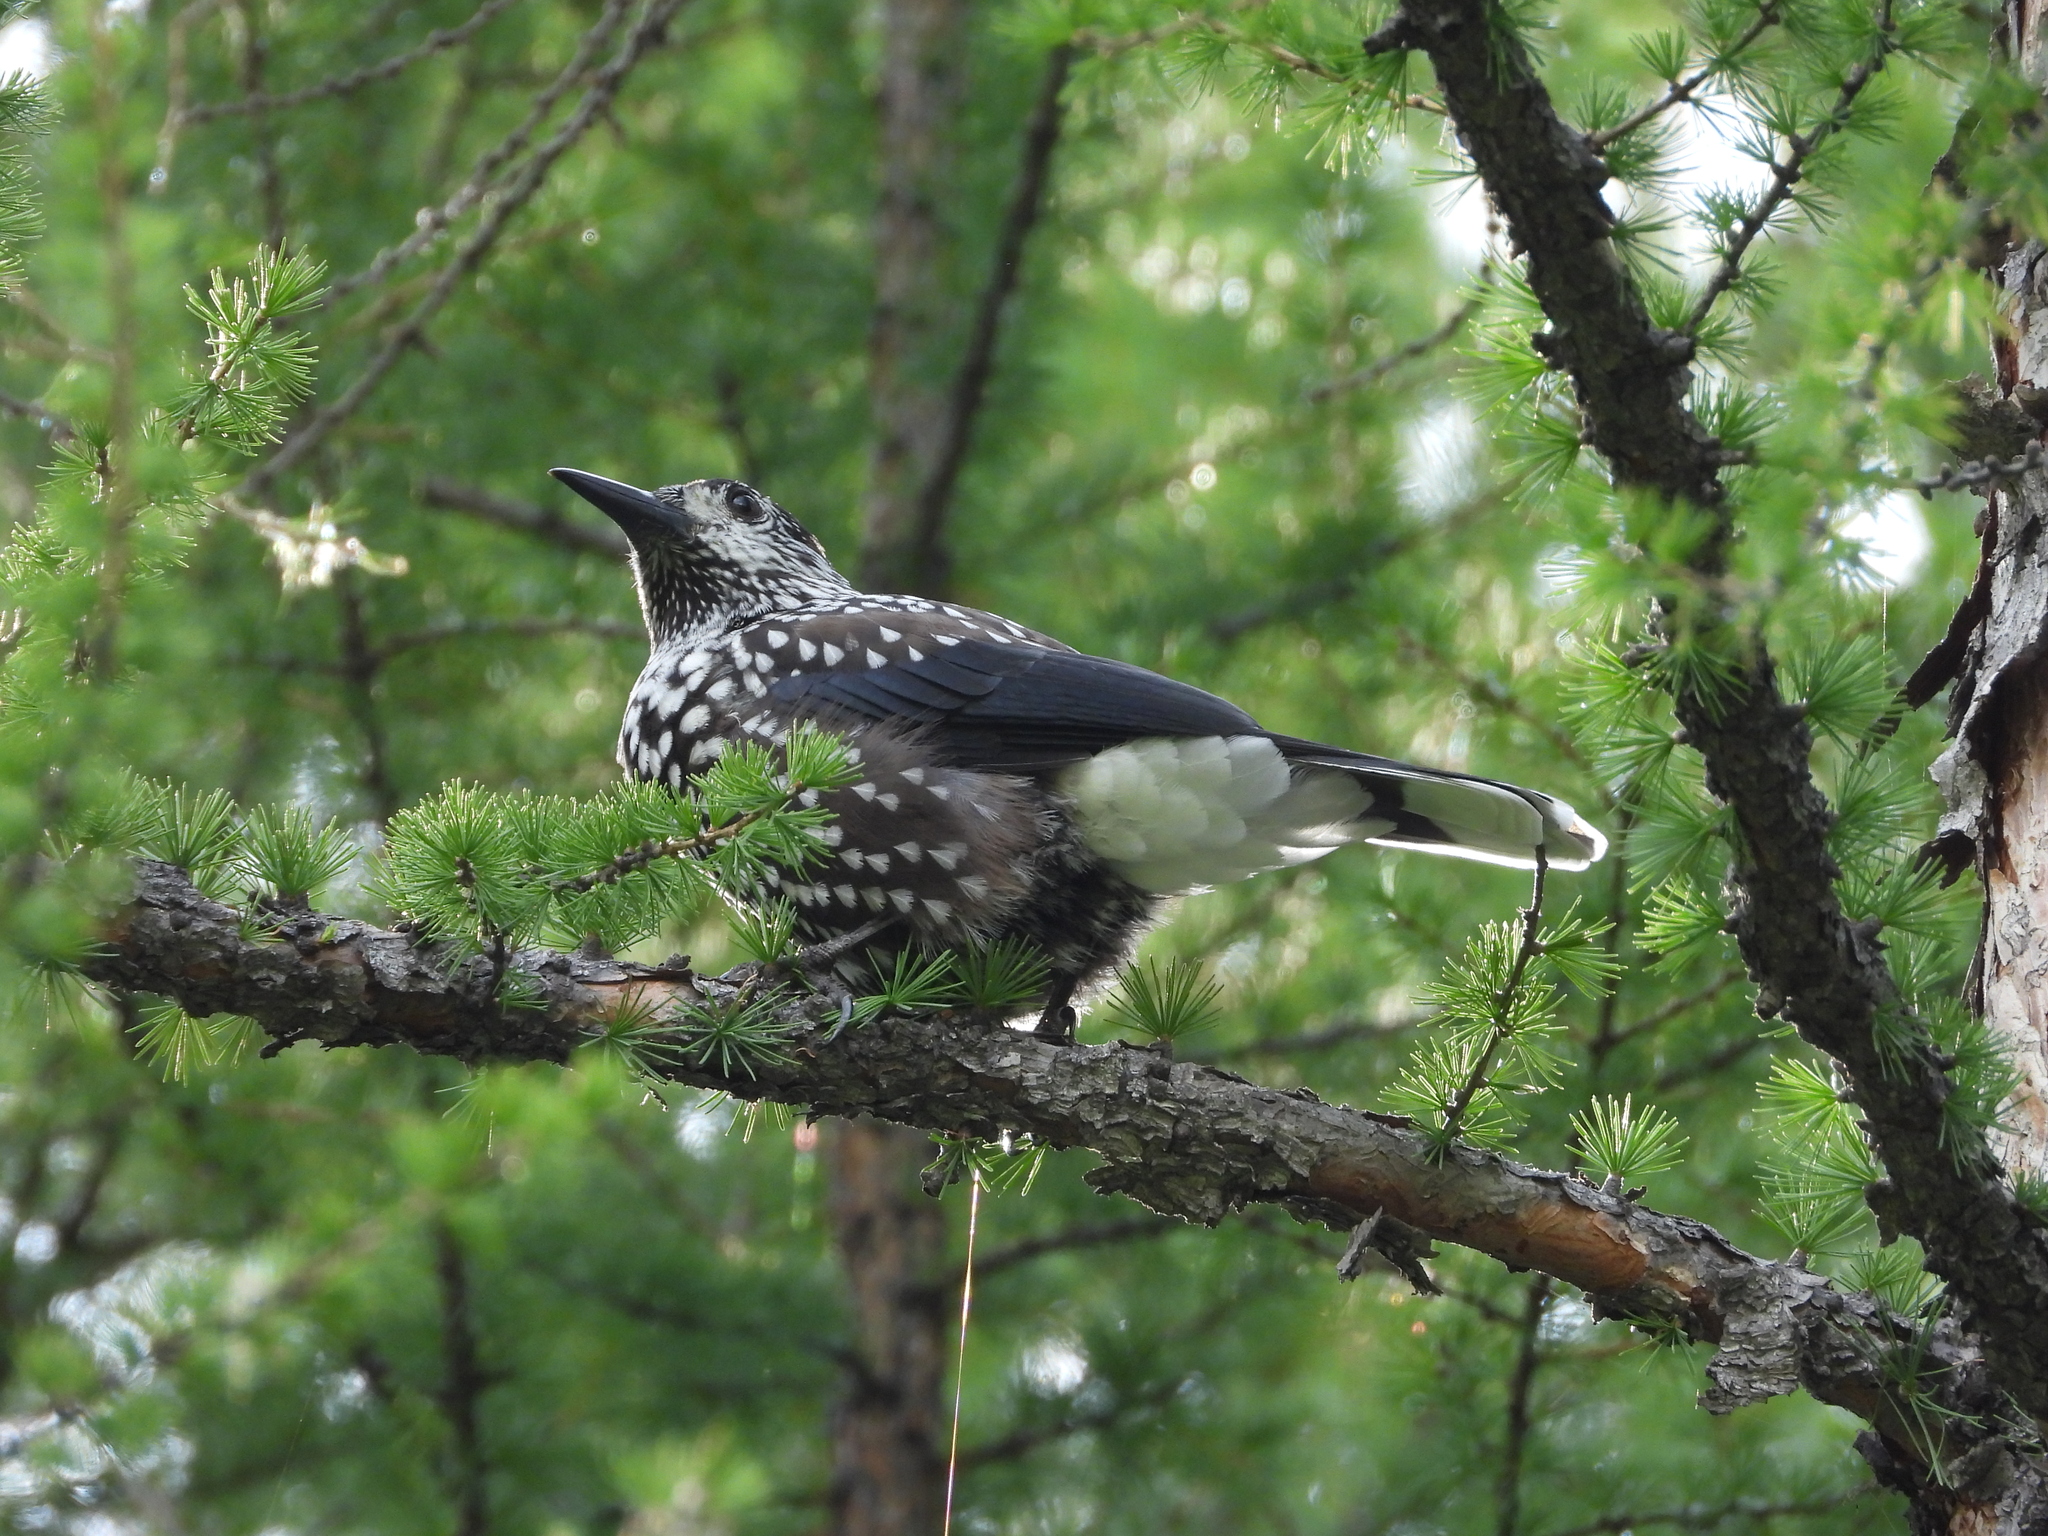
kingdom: Animalia
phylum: Chordata
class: Aves
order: Passeriformes
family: Corvidae
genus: Nucifraga
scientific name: Nucifraga caryocatactes
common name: Spotted nutcracker
